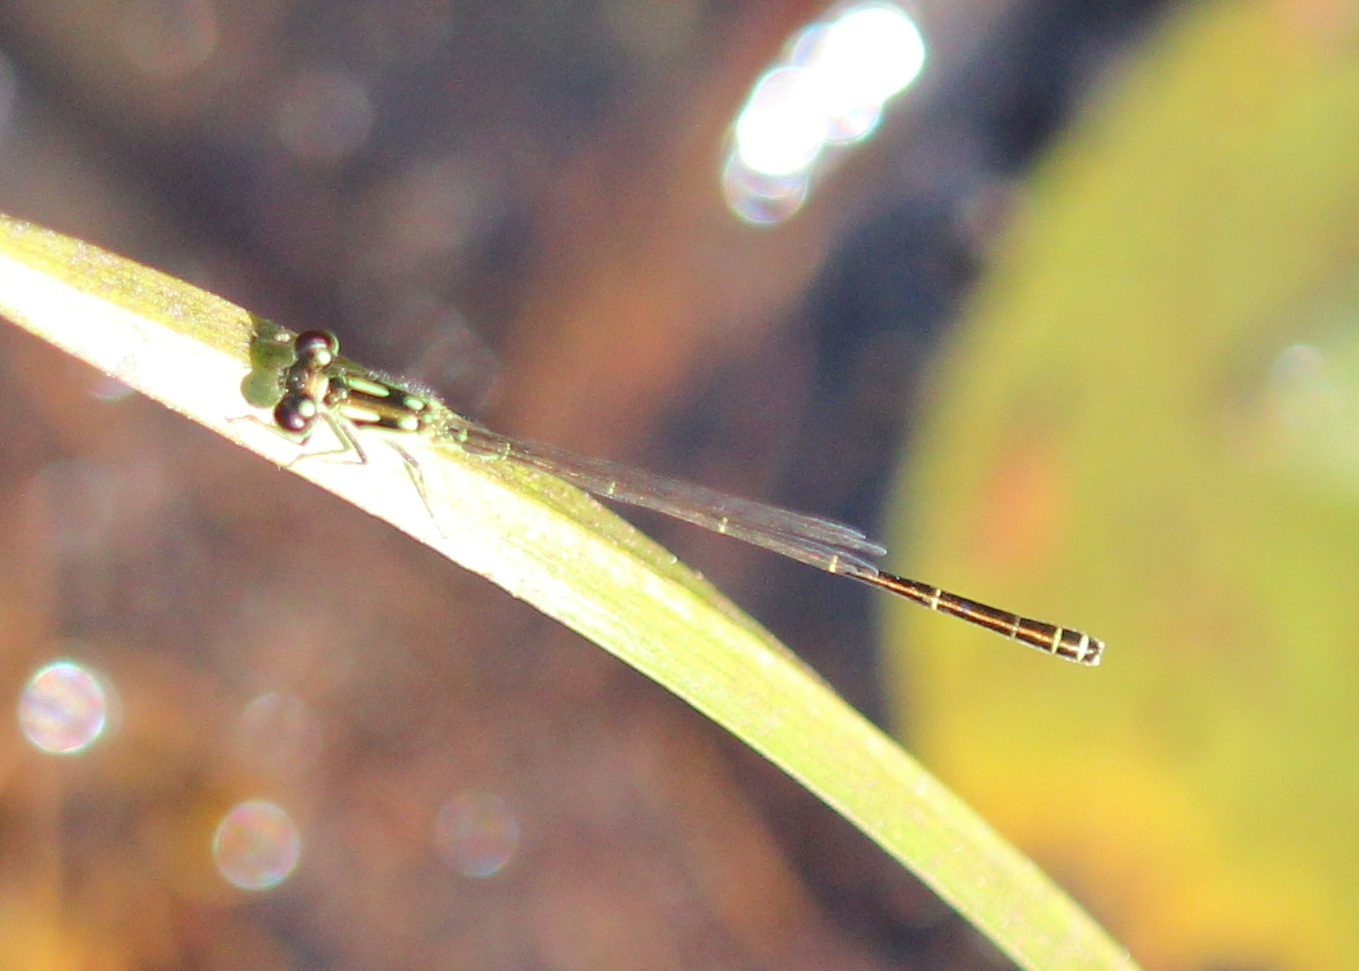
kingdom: Animalia
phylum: Arthropoda
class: Insecta
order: Odonata
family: Coenagrionidae
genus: Ischnura
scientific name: Ischnura posita
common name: Fragile forktail
